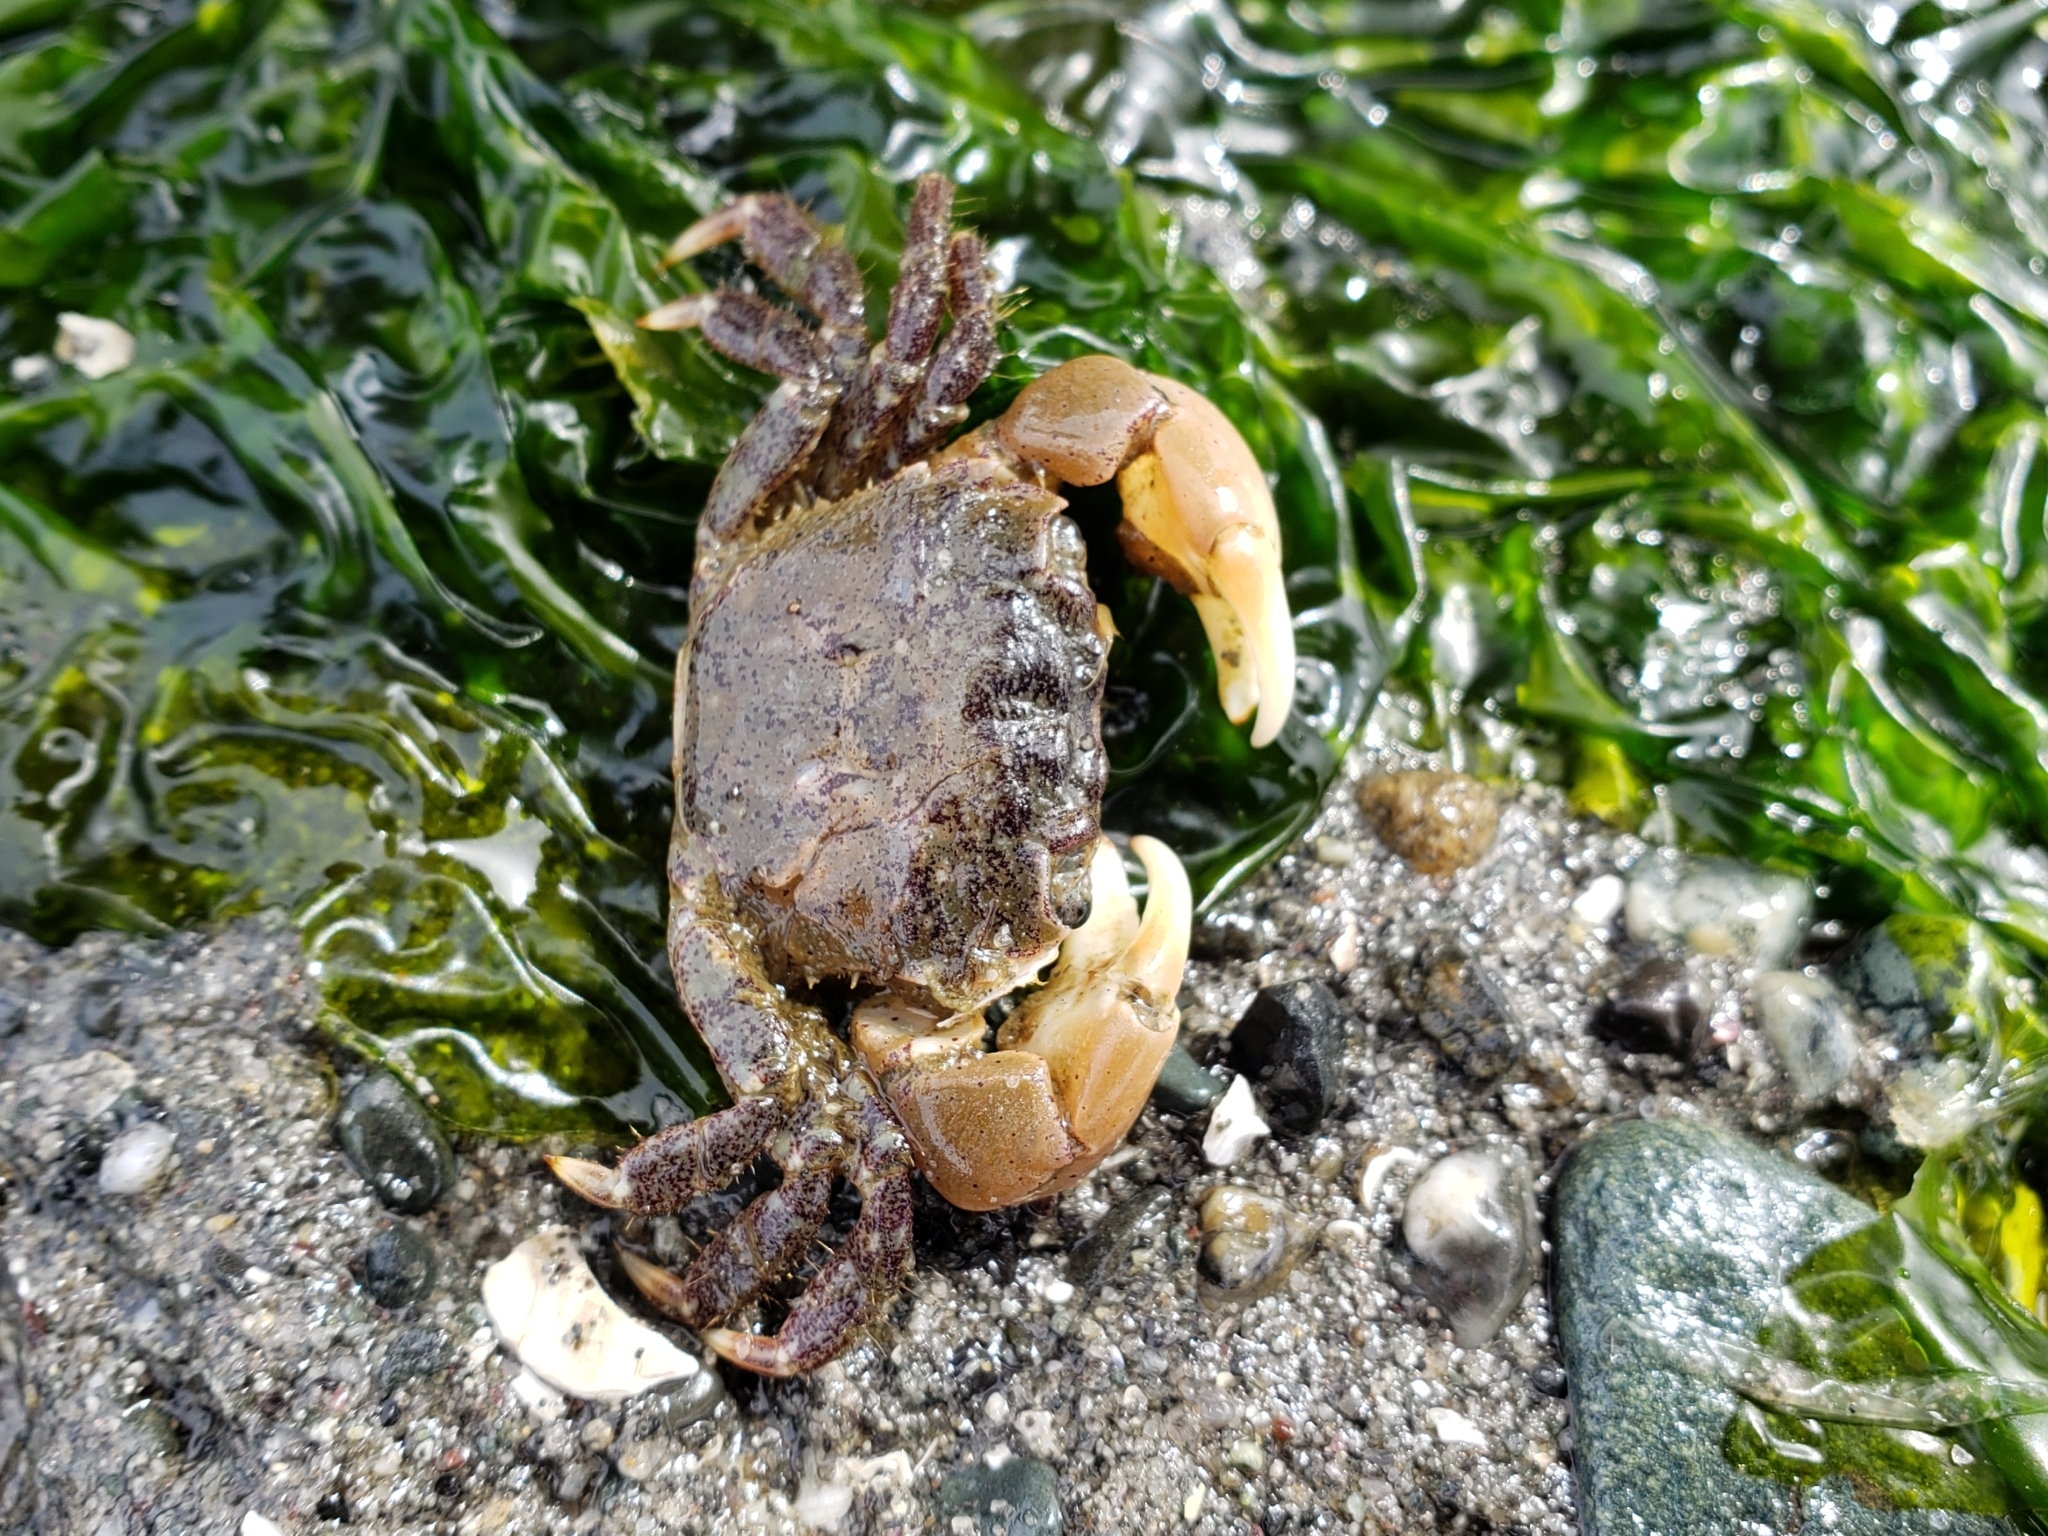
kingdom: Animalia
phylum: Arthropoda
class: Malacostraca
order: Decapoda
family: Varunidae
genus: Hemigrapsus
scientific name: Hemigrapsus oregonensis
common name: Yellow shore crab
